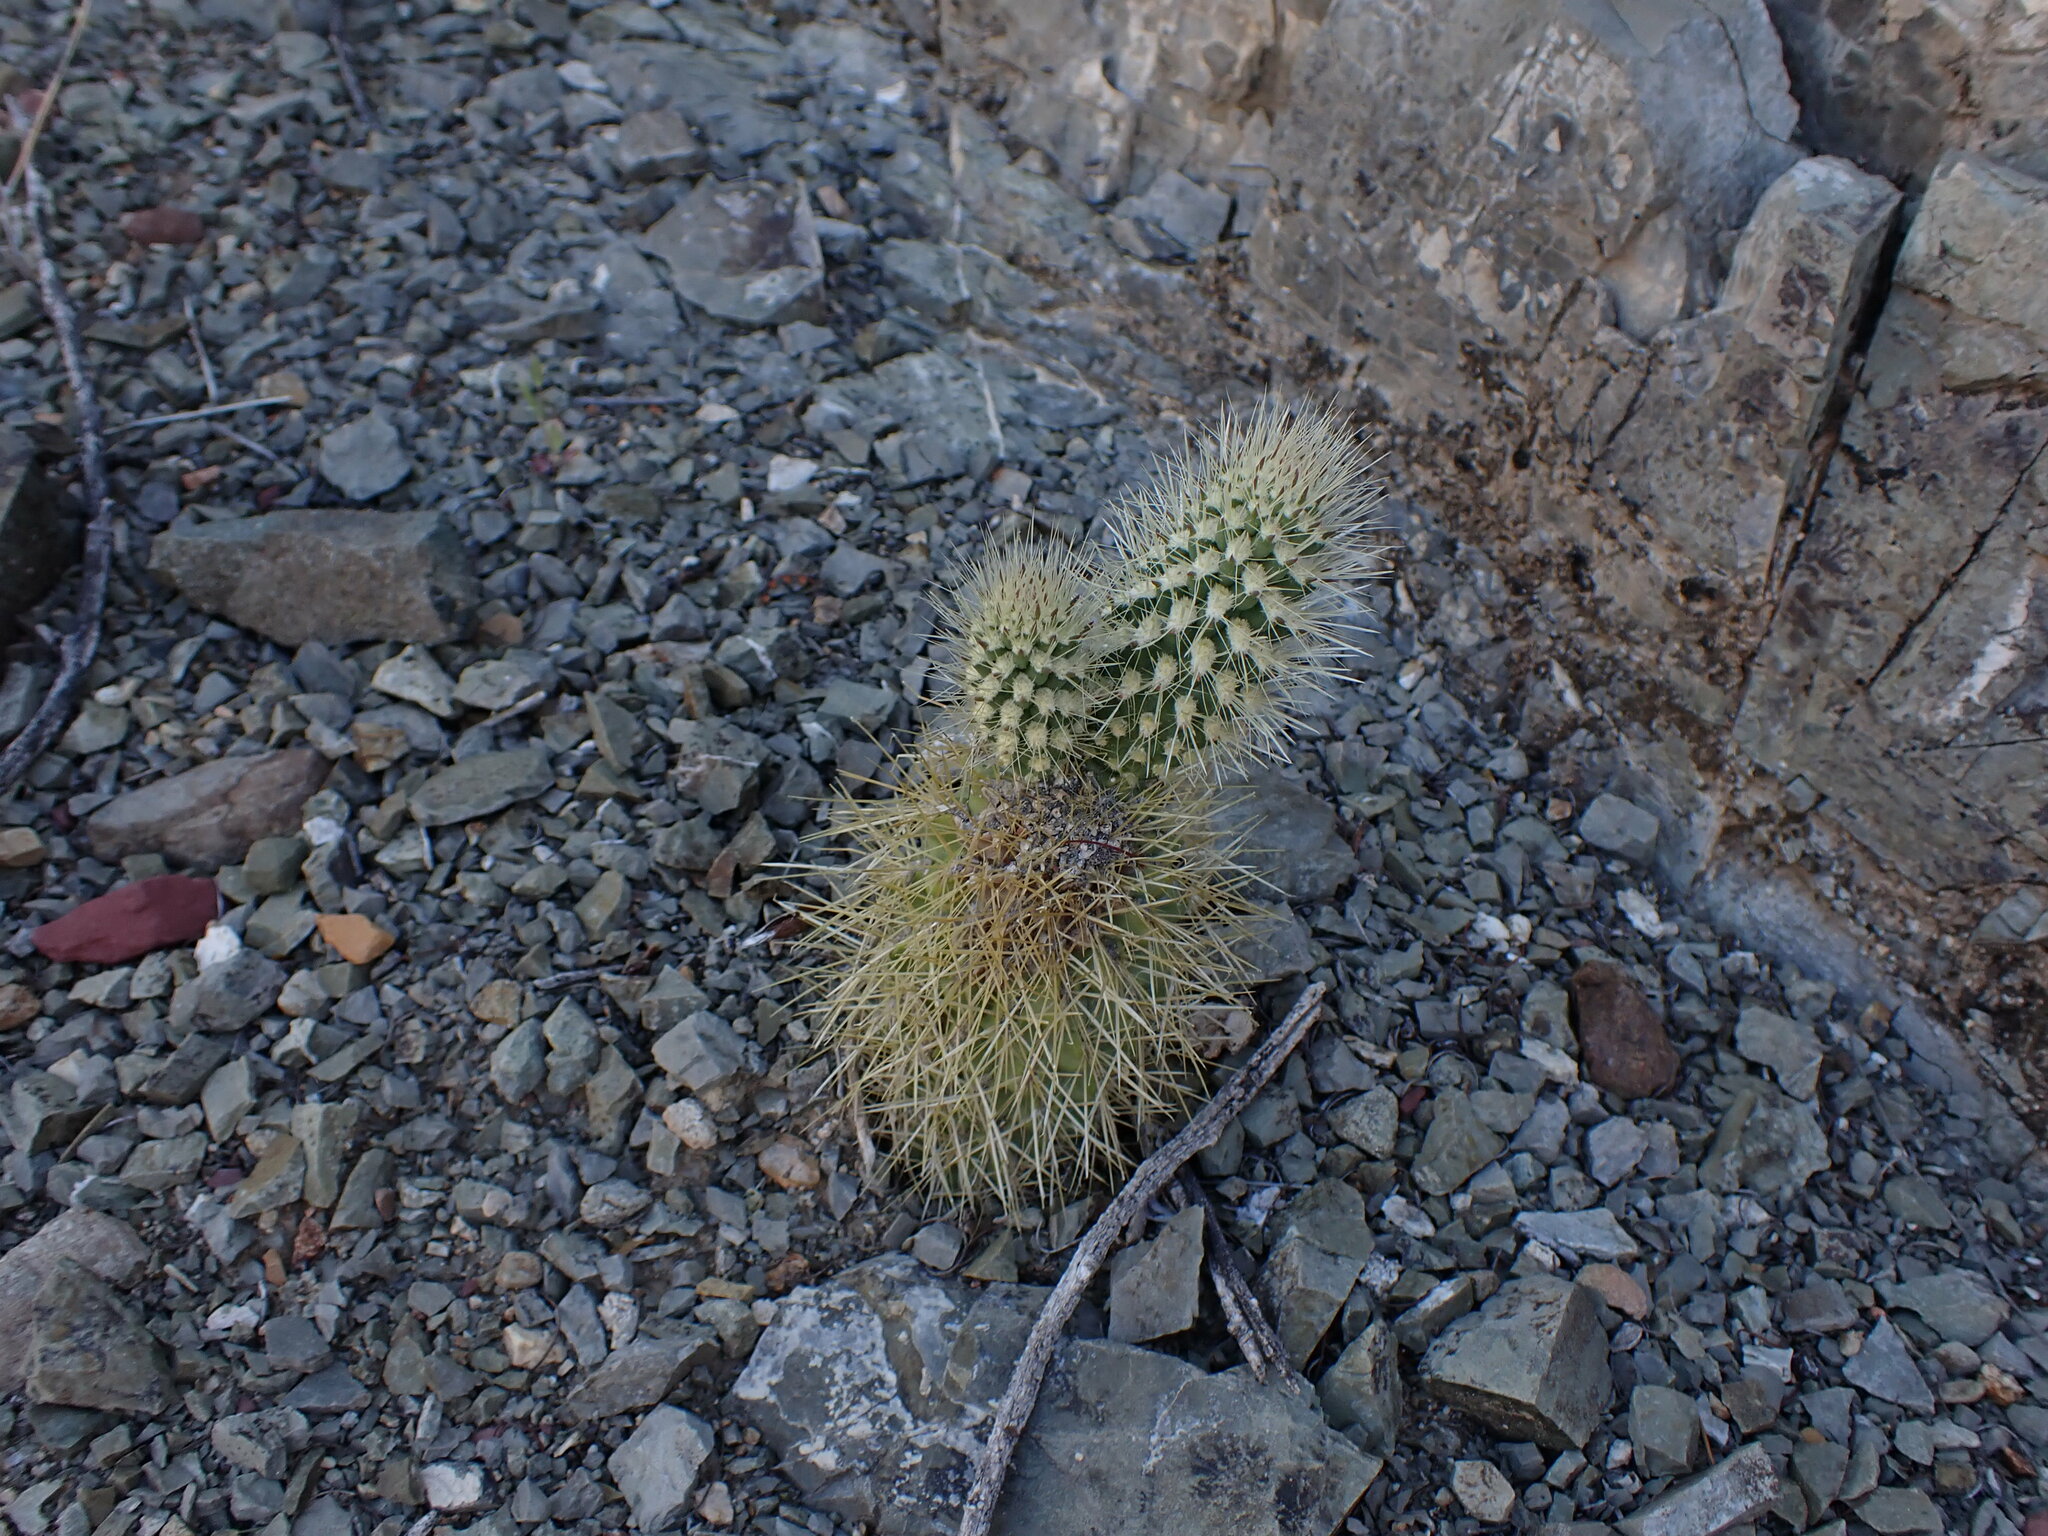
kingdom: Plantae
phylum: Tracheophyta
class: Magnoliopsida
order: Caryophyllales
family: Cactaceae
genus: Cylindropuntia
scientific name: Cylindropuntia fosbergii
